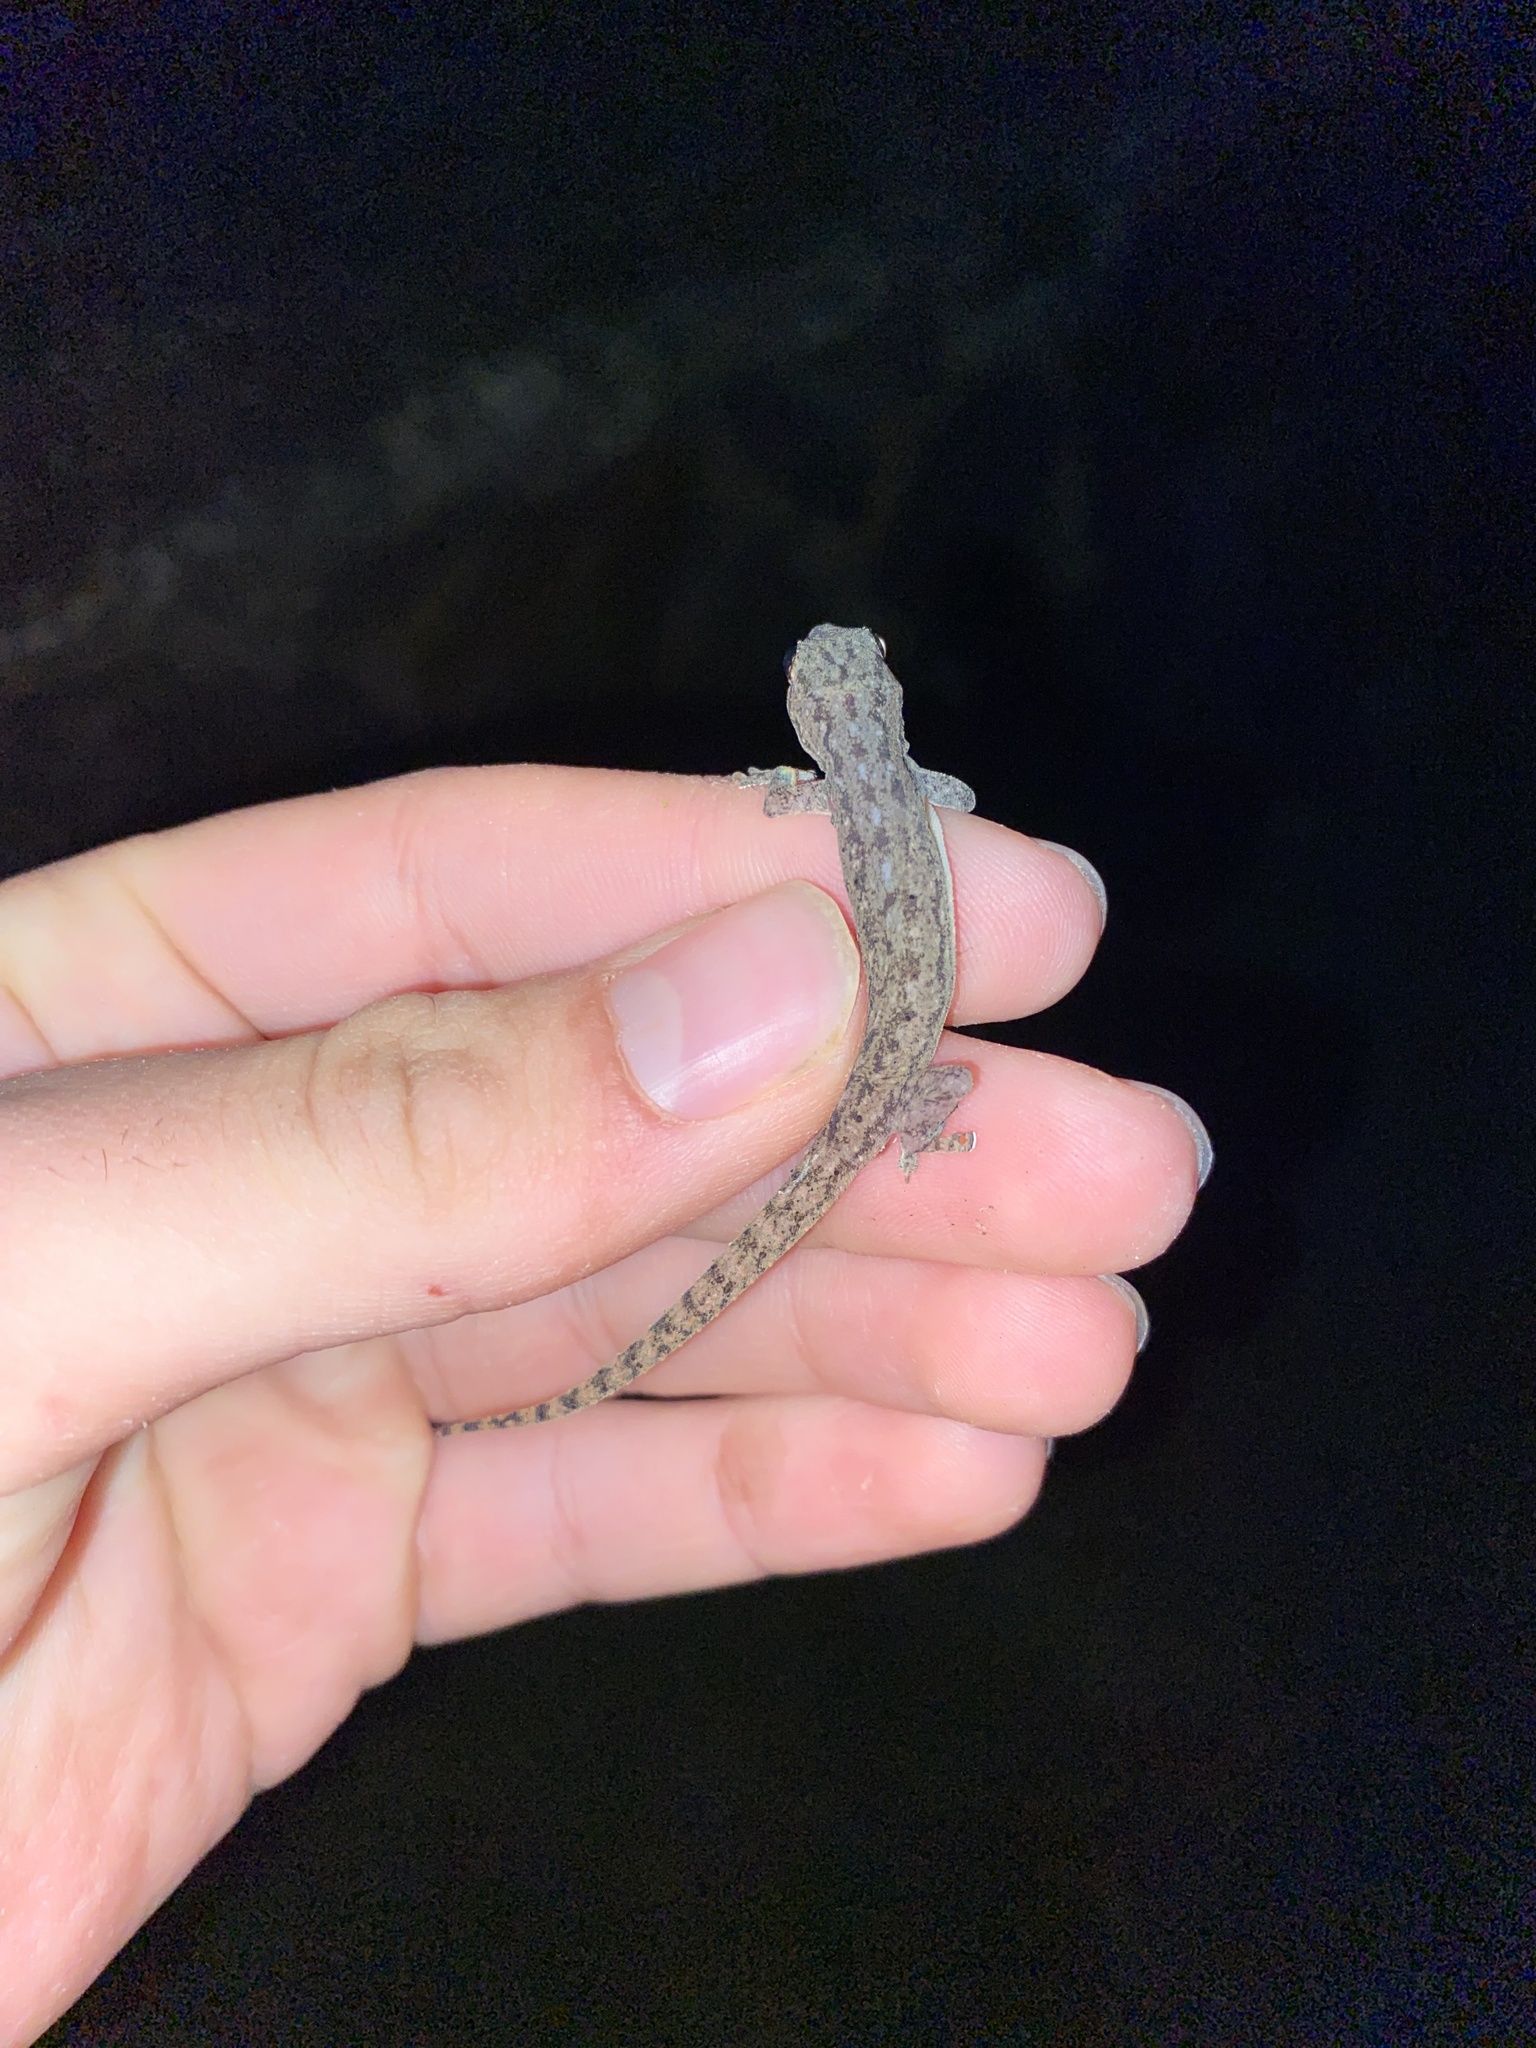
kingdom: Animalia
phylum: Chordata
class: Squamata
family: Gekkonidae
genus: Hemidactylus
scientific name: Hemidactylus frenatus
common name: Common house gecko
